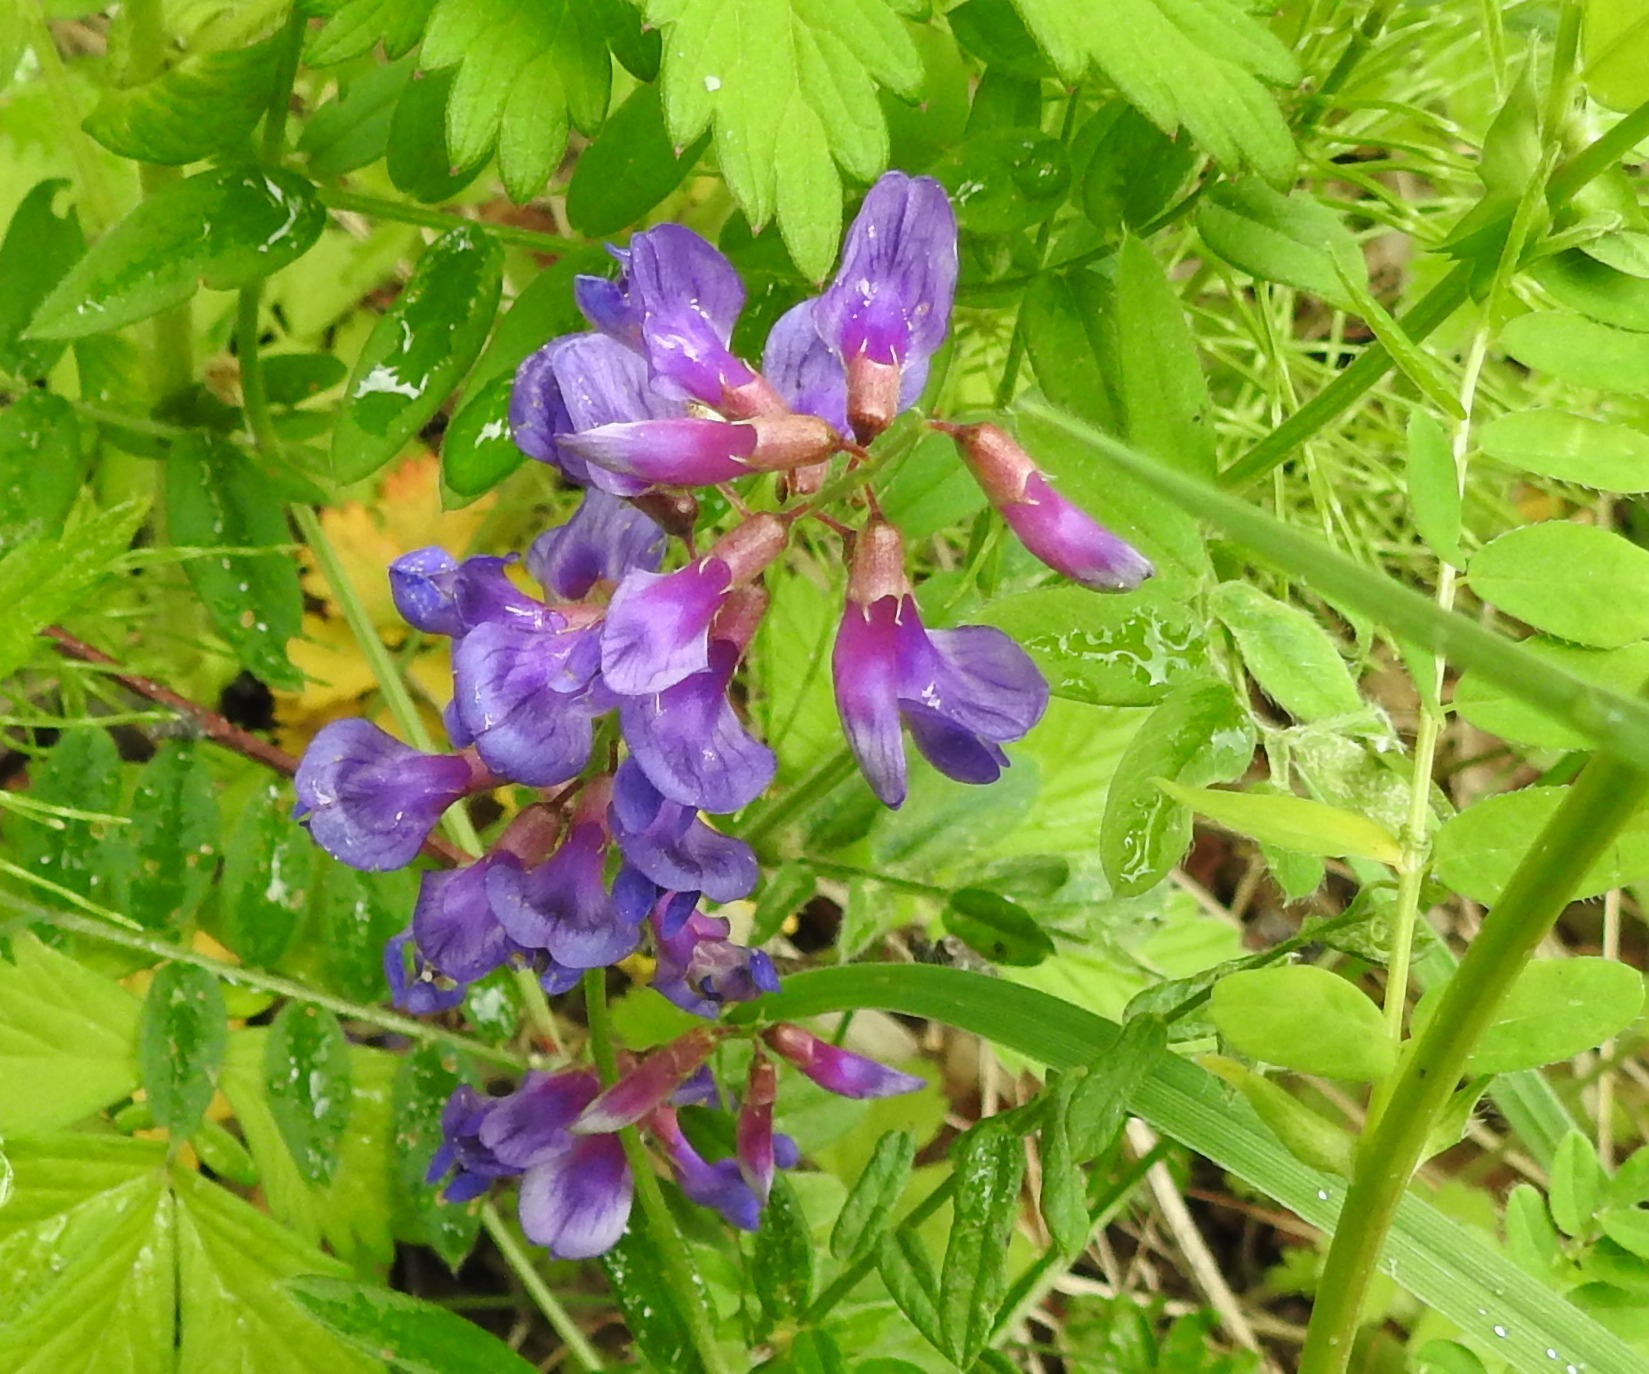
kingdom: Plantae
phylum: Tracheophyta
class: Magnoliopsida
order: Fabales
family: Fabaceae
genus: Vicia
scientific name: Vicia amoena
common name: Cheder ebs
